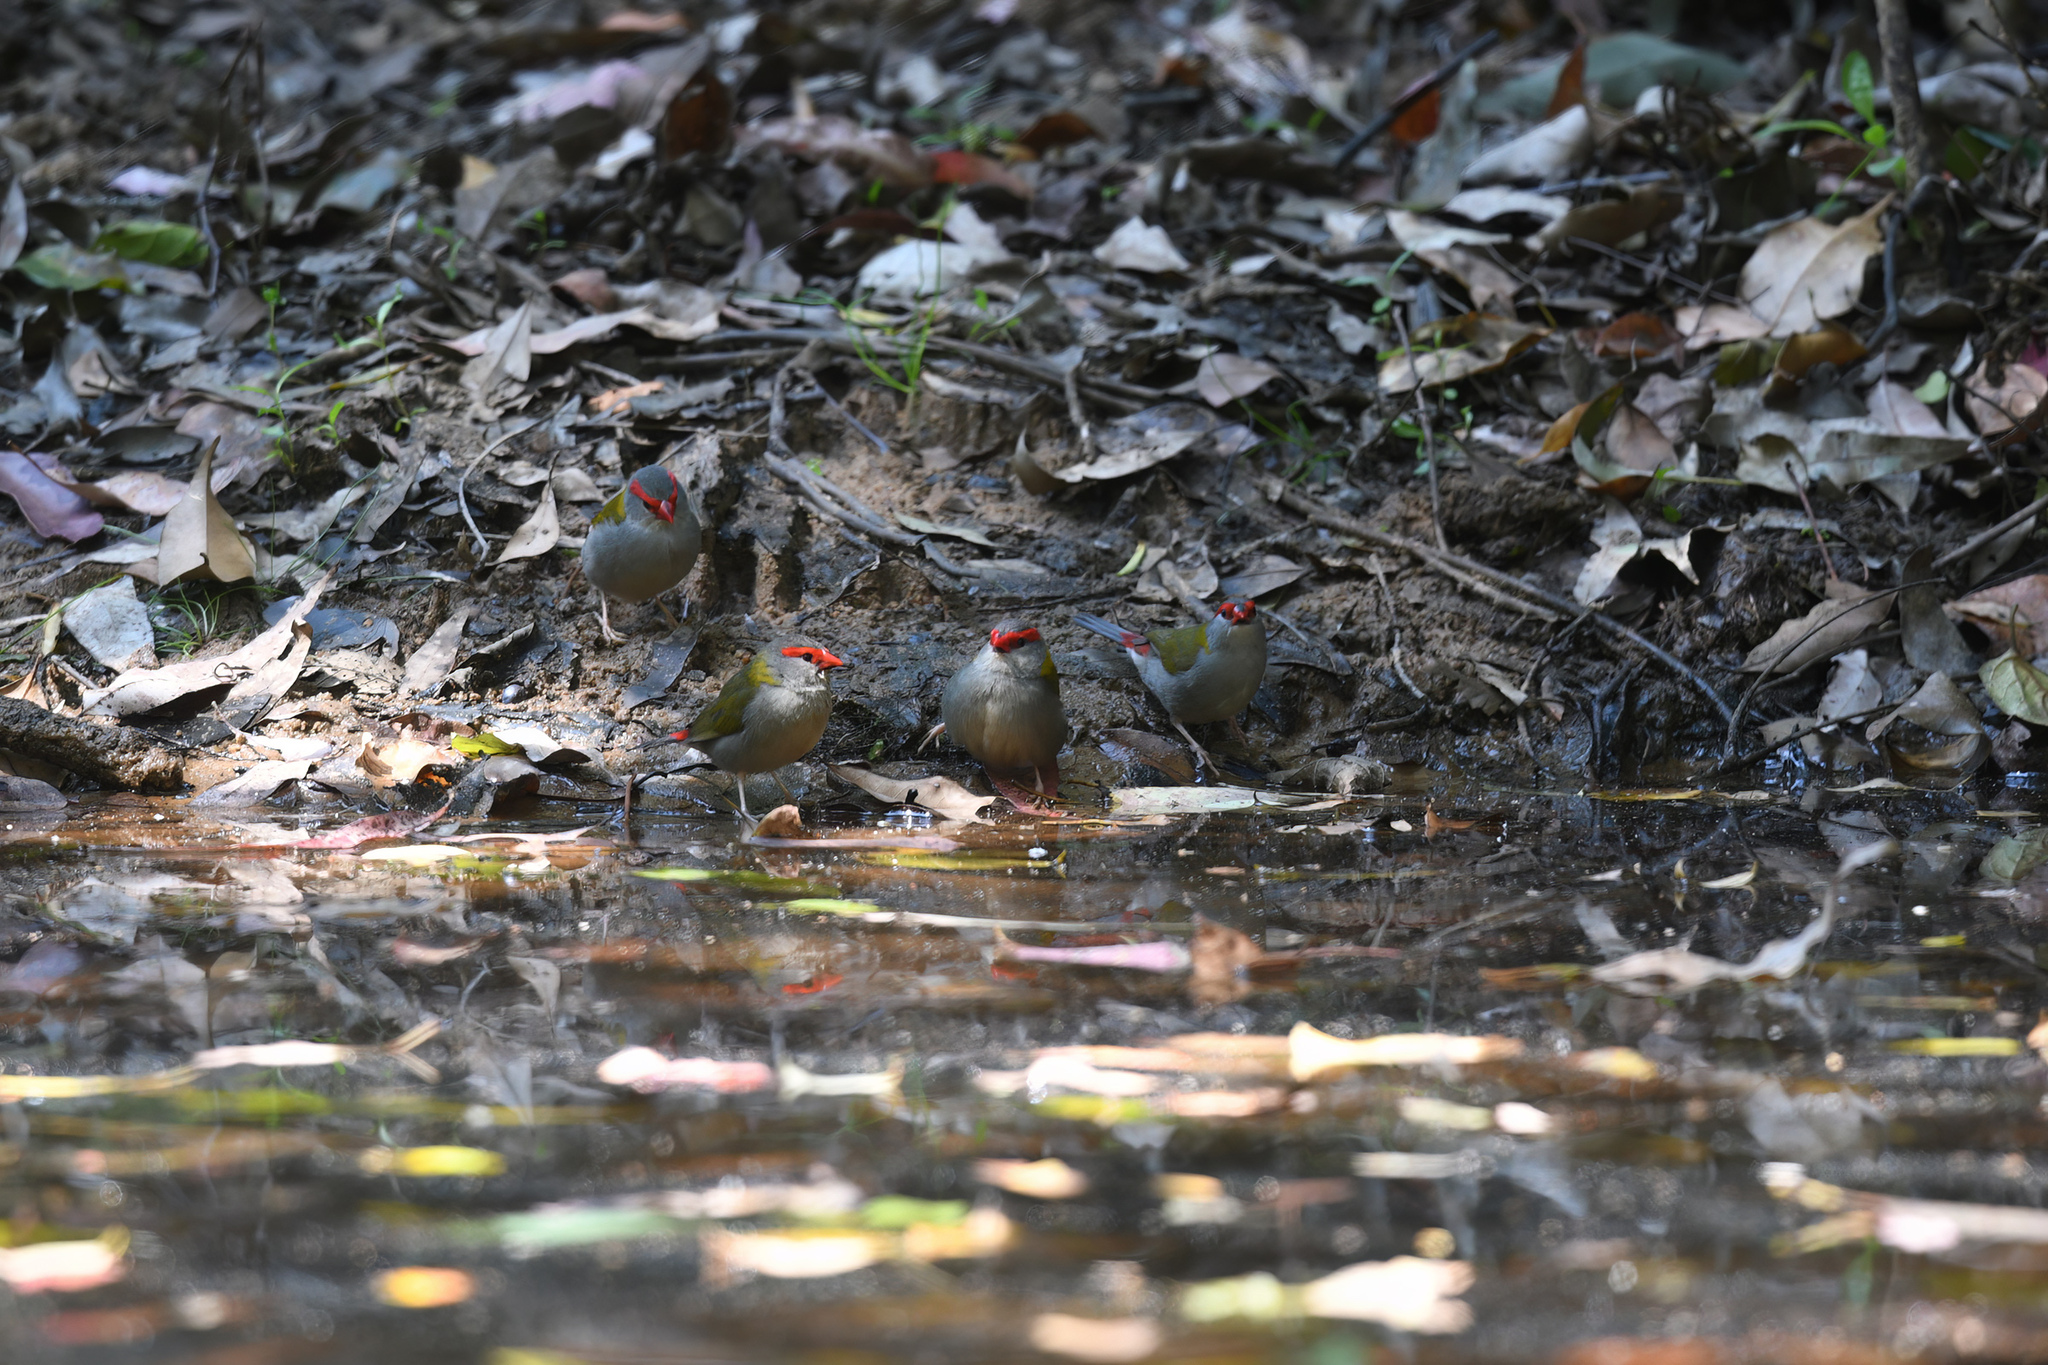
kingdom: Animalia
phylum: Chordata
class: Aves
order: Passeriformes
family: Estrildidae
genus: Neochmia
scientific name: Neochmia temporalis
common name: Red-browed finch
